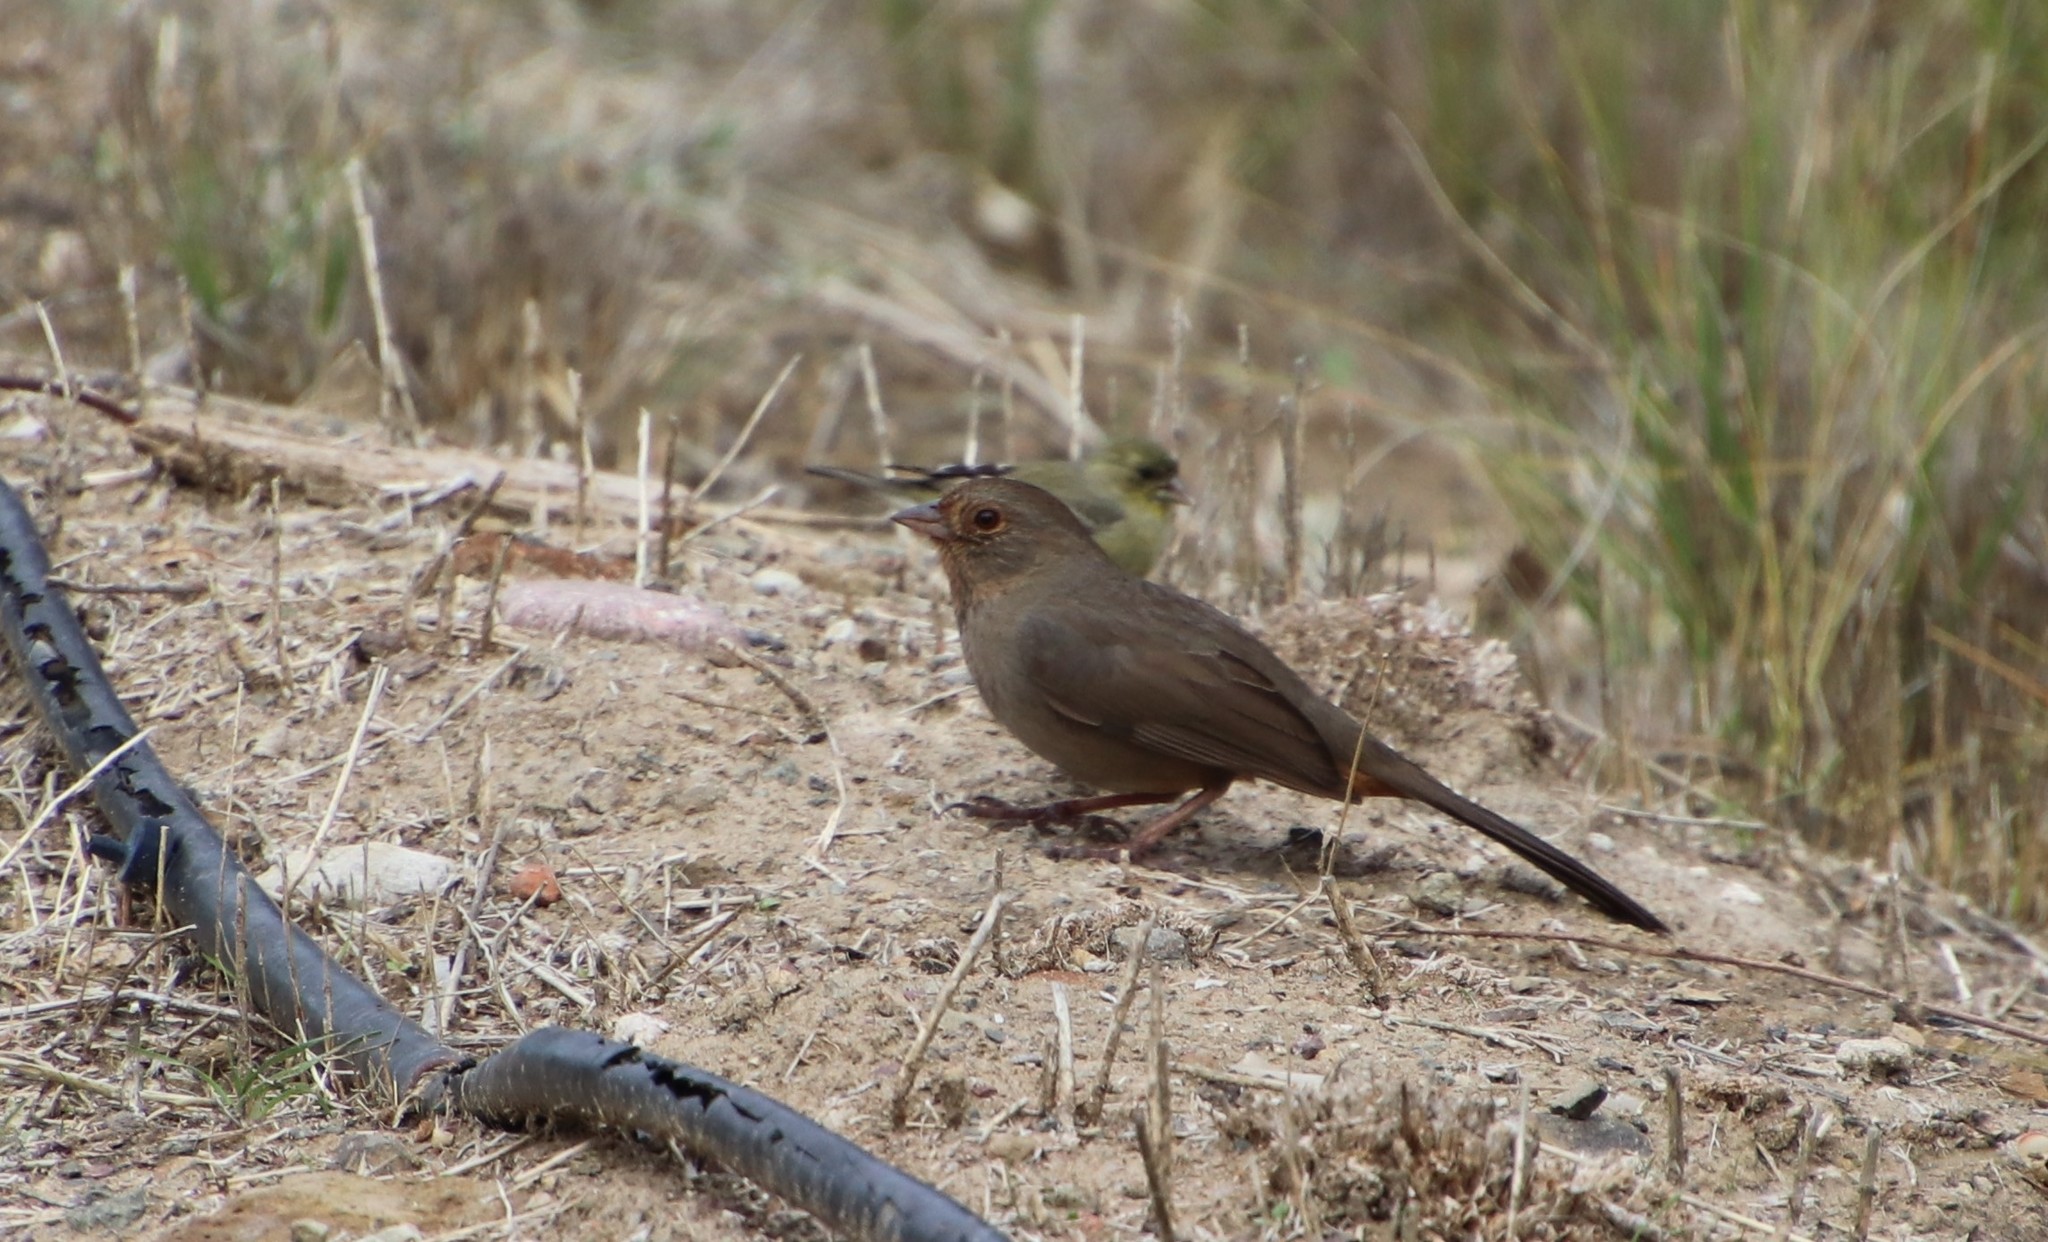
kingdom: Animalia
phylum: Chordata
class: Aves
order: Passeriformes
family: Passerellidae
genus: Melozone
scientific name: Melozone crissalis
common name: California towhee
